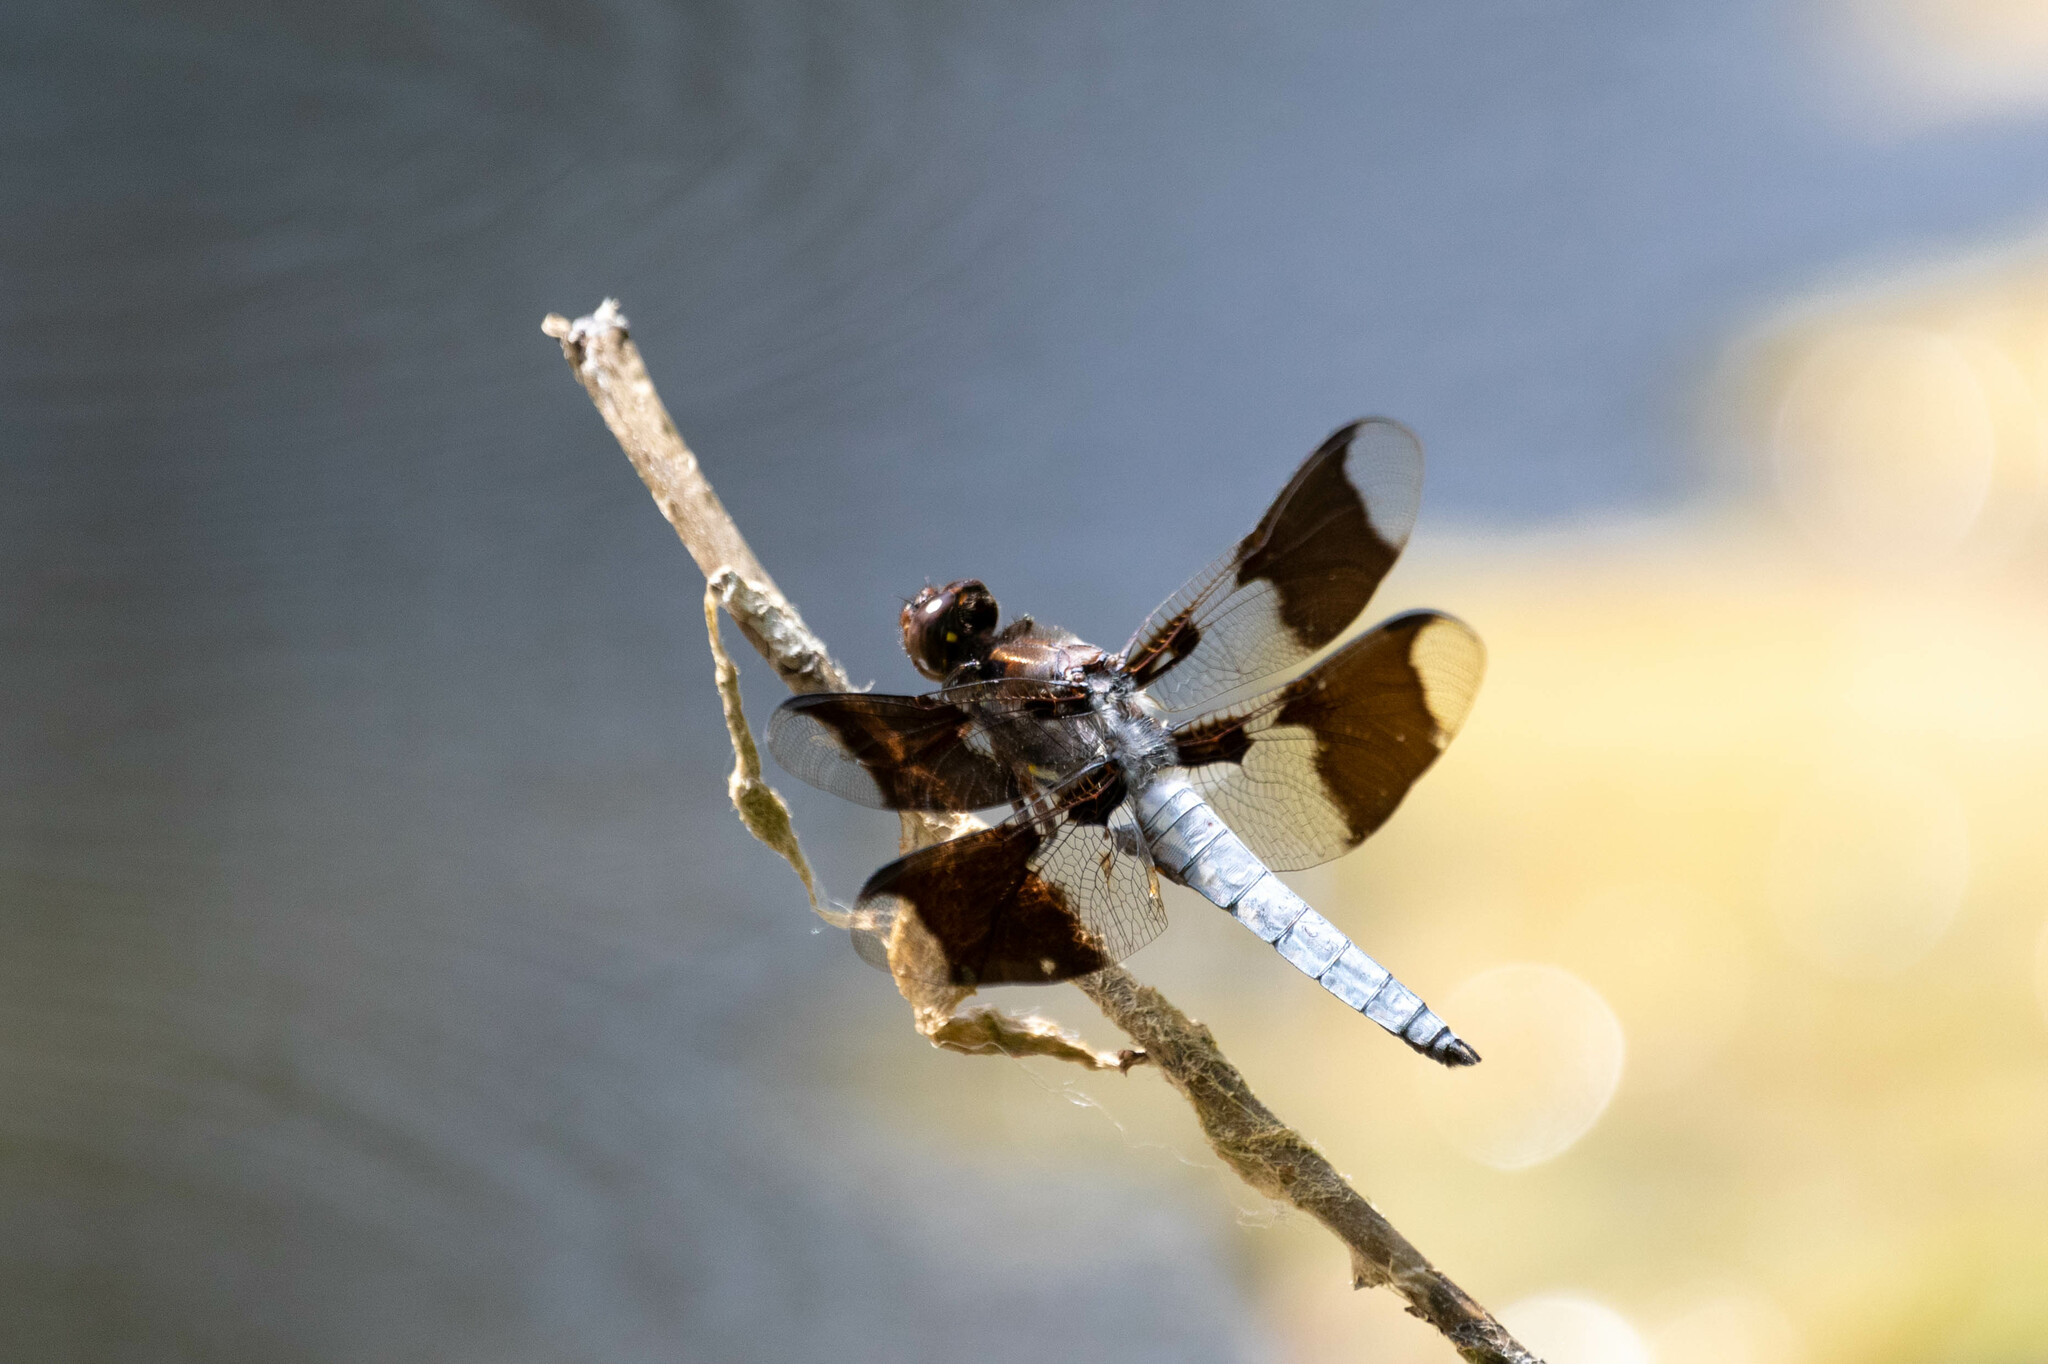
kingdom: Animalia
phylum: Arthropoda
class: Insecta
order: Odonata
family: Libellulidae
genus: Plathemis
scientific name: Plathemis lydia
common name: Common whitetail
